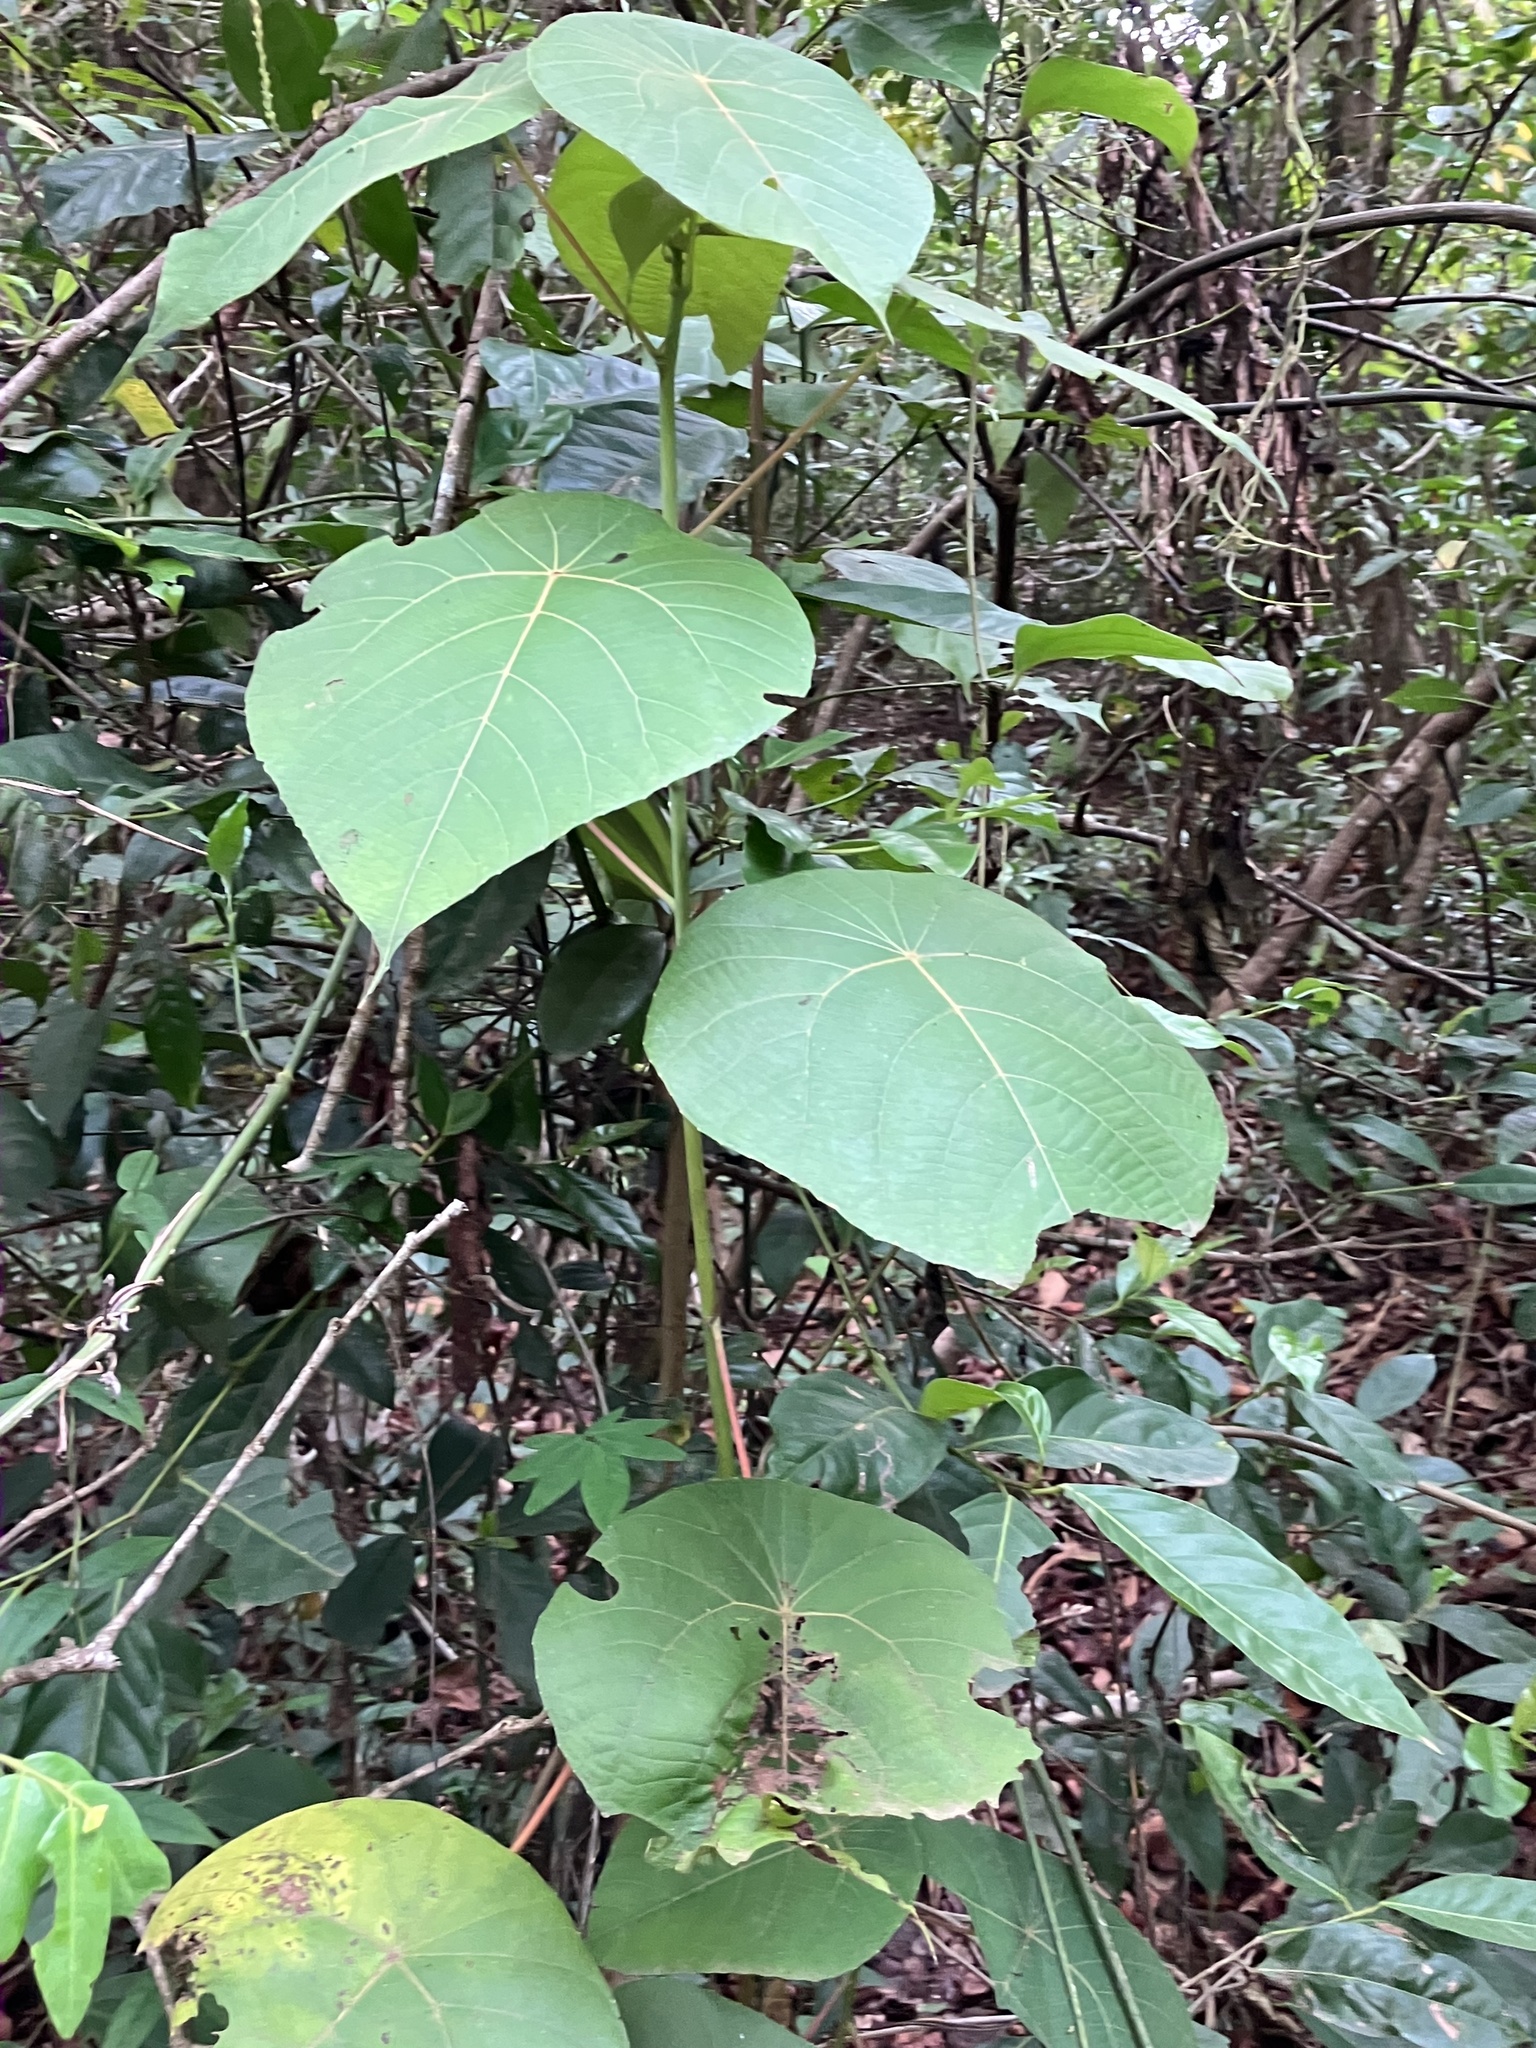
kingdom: Plantae
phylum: Tracheophyta
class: Magnoliopsida
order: Malpighiales
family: Euphorbiaceae
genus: Macaranga
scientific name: Macaranga peltata
